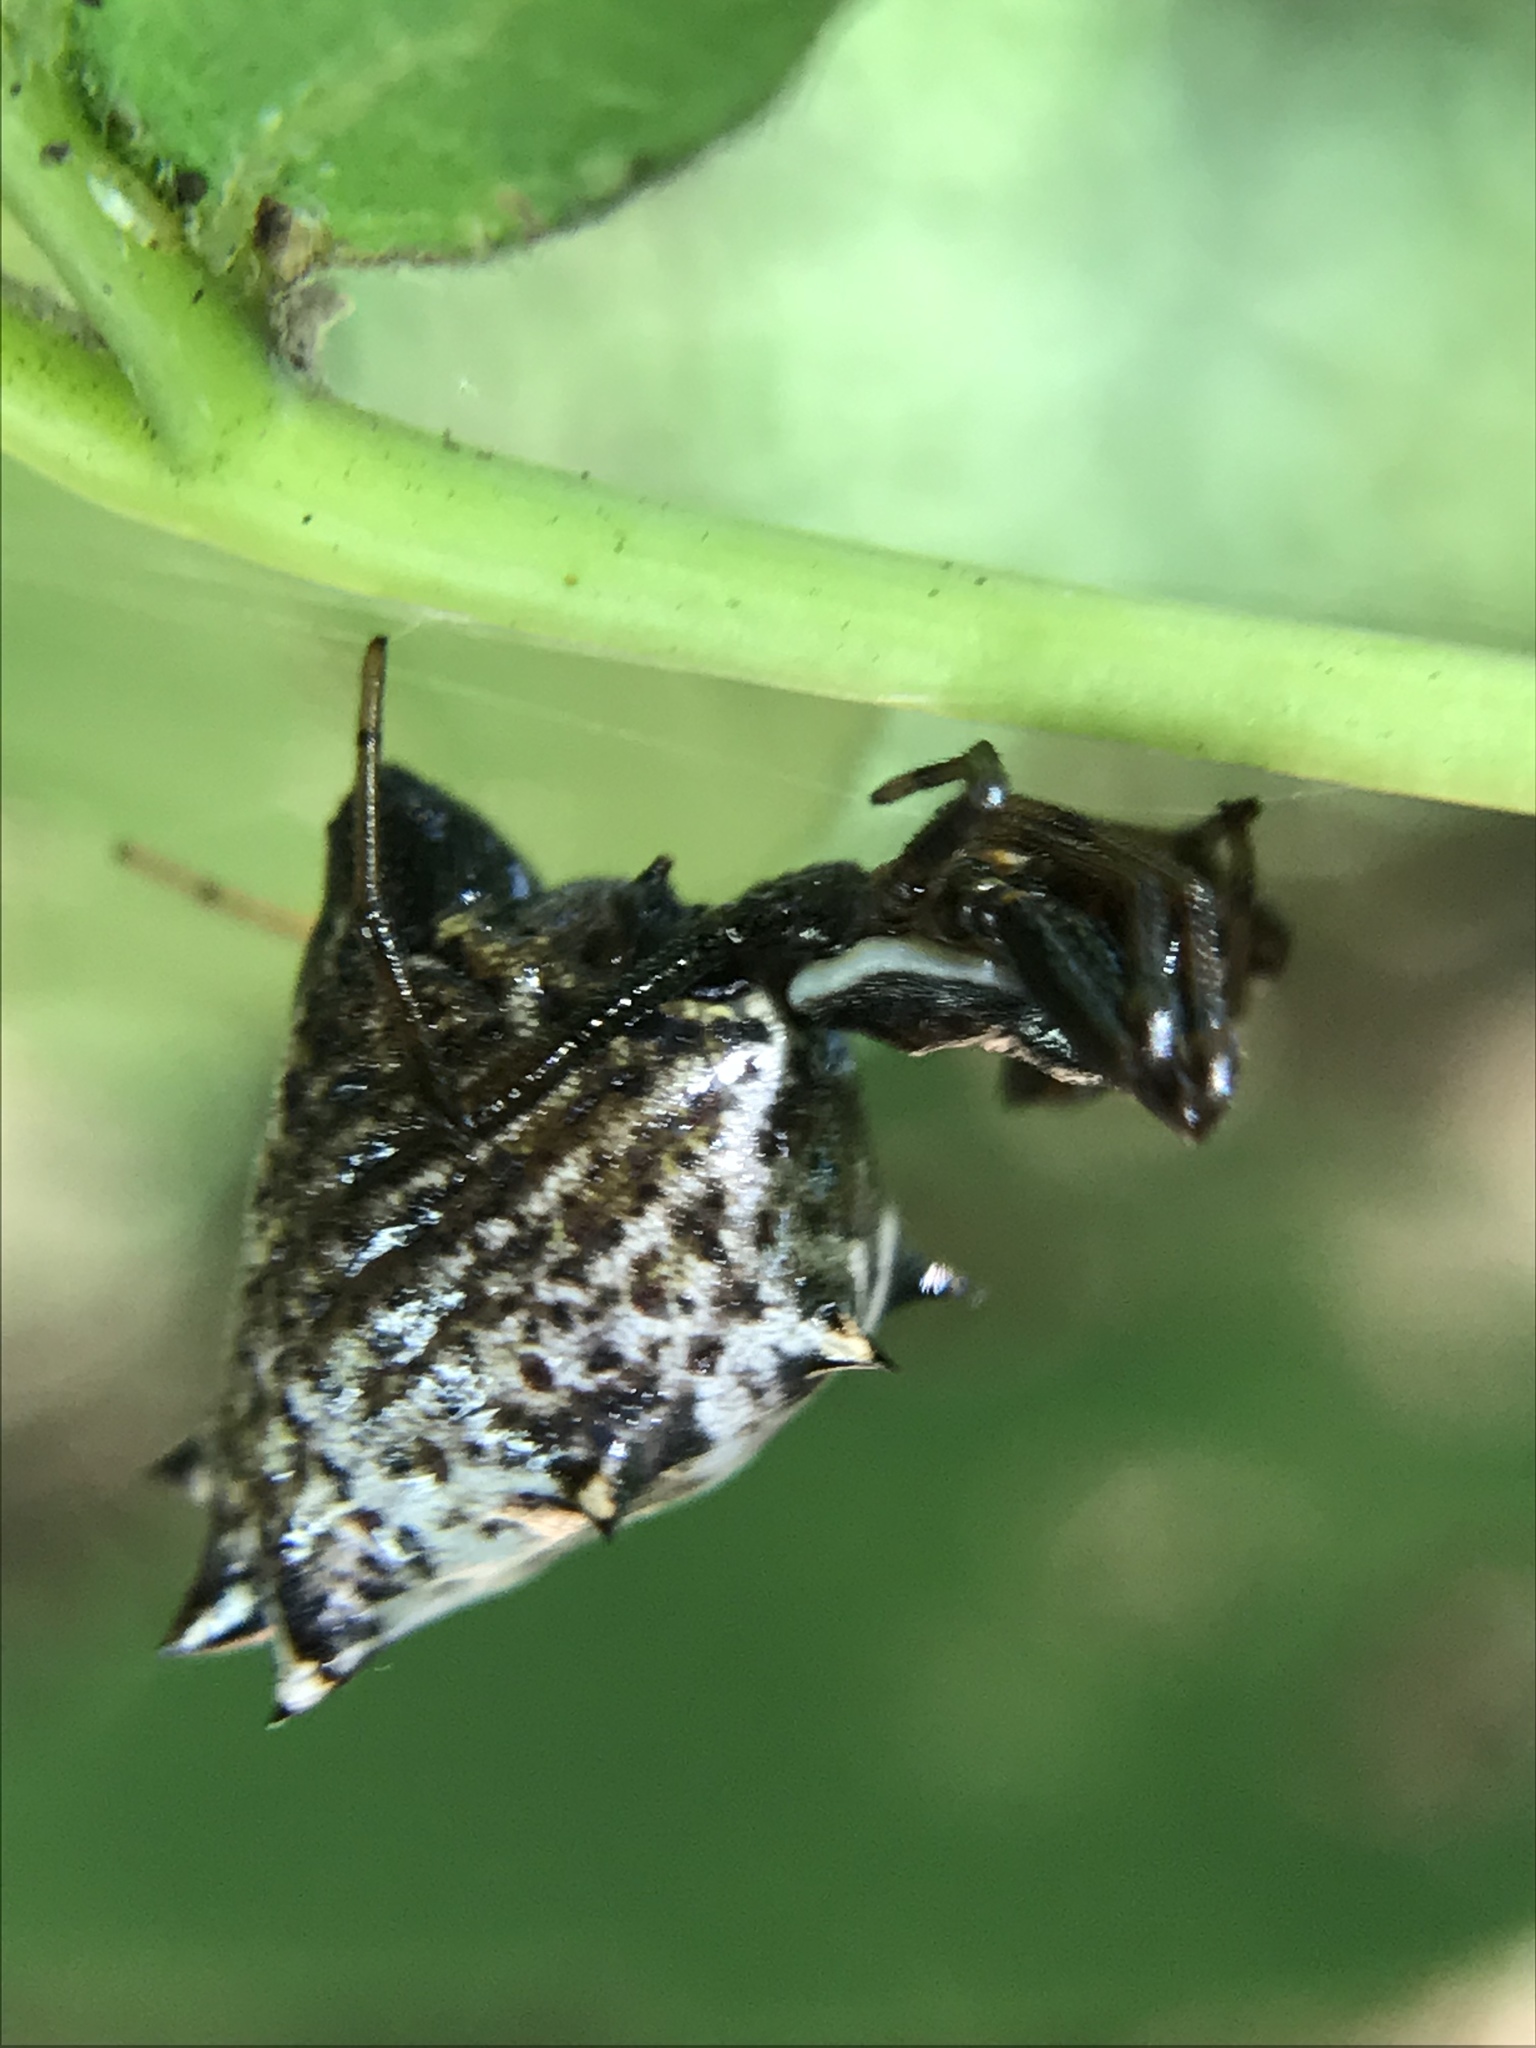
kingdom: Animalia
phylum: Arthropoda
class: Arachnida
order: Araneae
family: Araneidae
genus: Micrathena
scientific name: Micrathena gracilis
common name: Orb weavers
